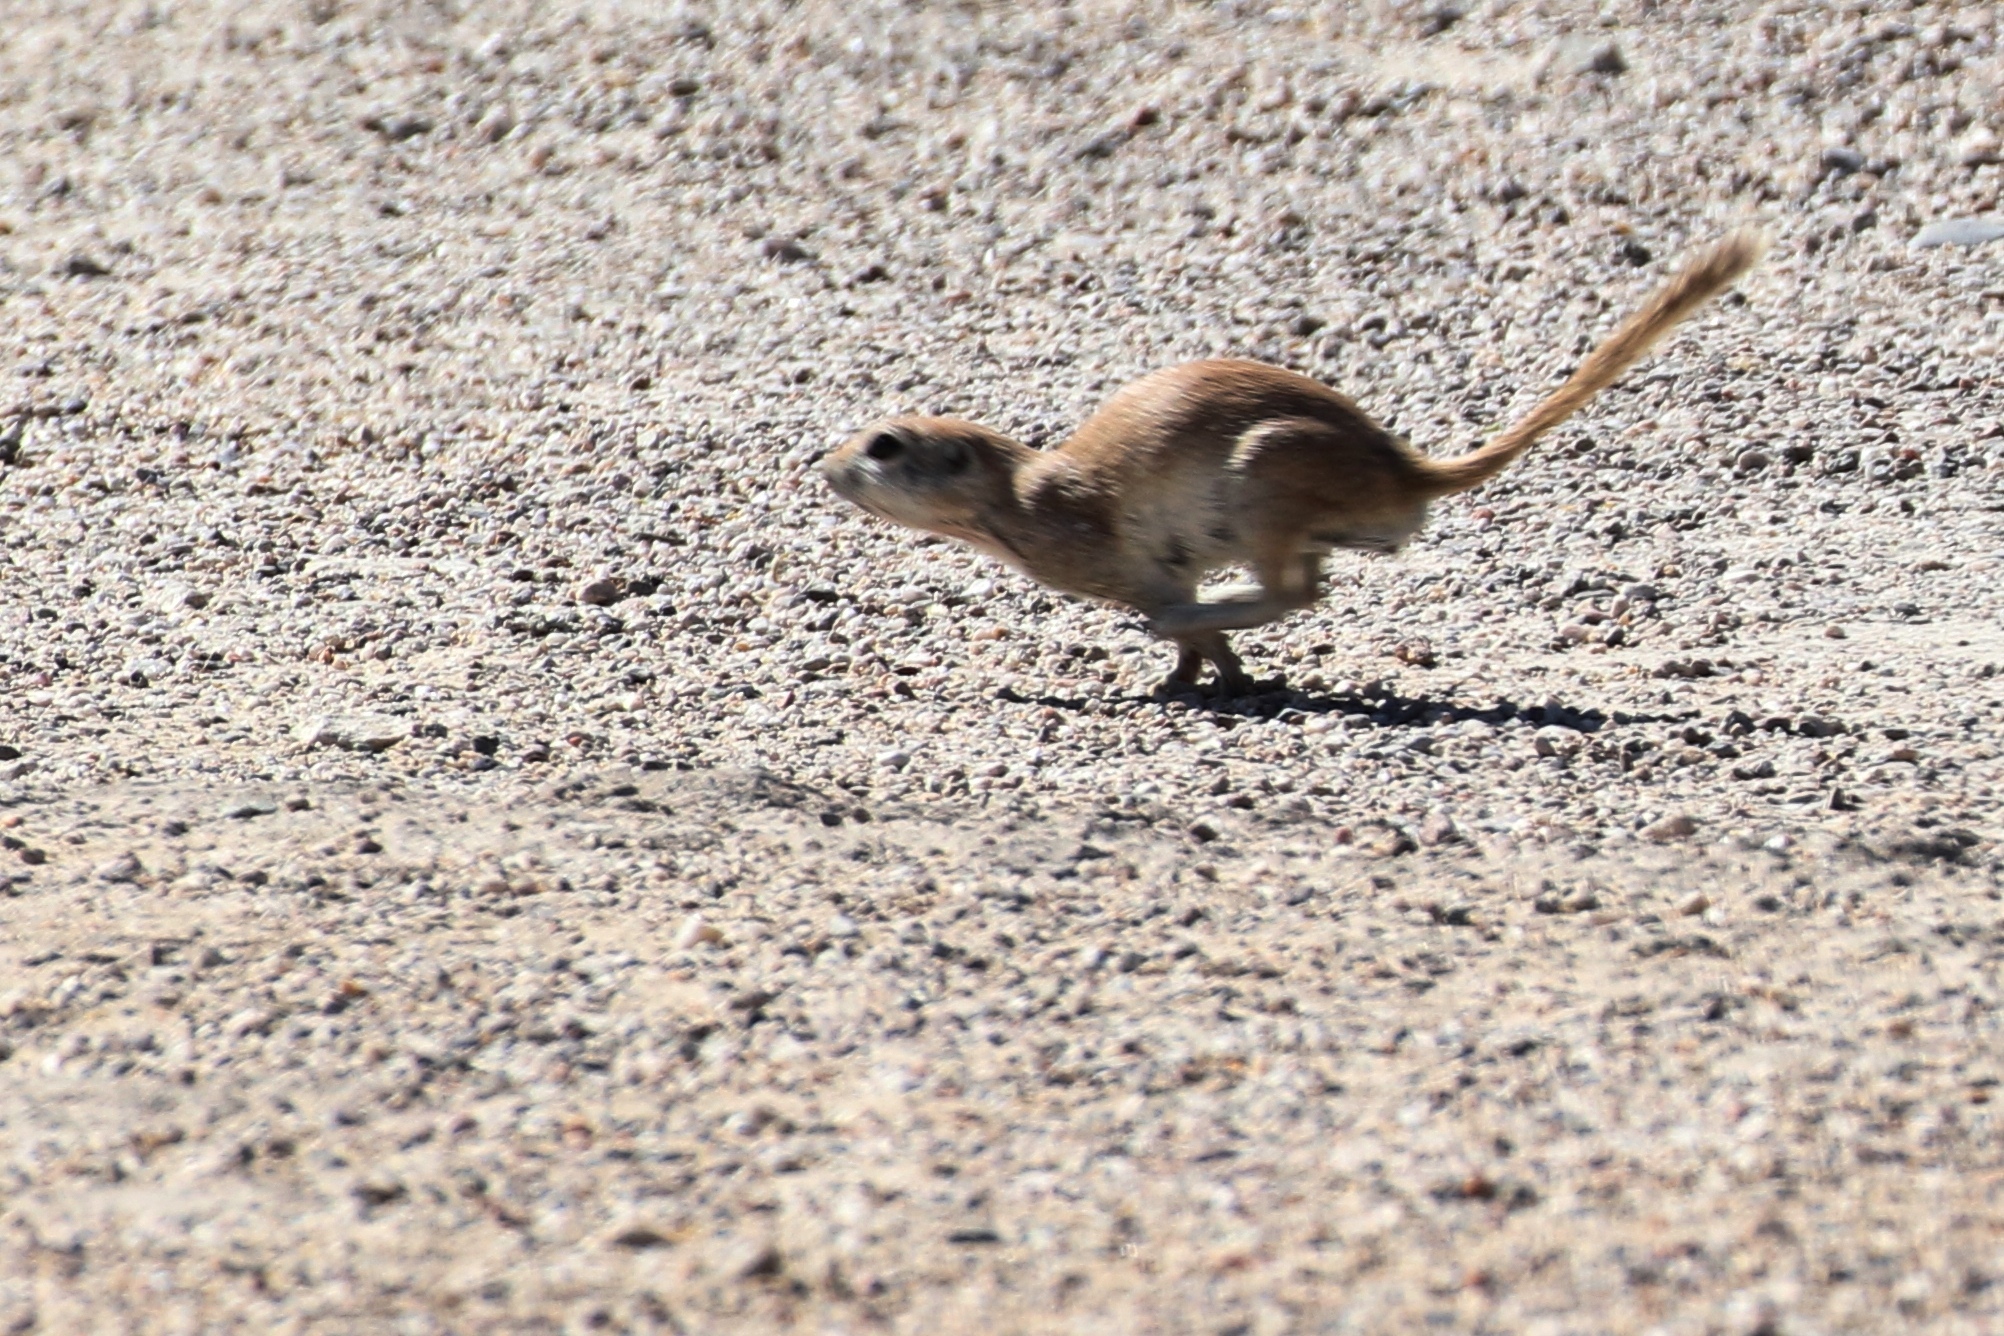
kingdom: Animalia
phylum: Chordata
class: Mammalia
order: Rodentia
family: Sciuridae
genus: Xerospermophilus
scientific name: Xerospermophilus tereticaudus
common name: Round-tailed ground squirrel
